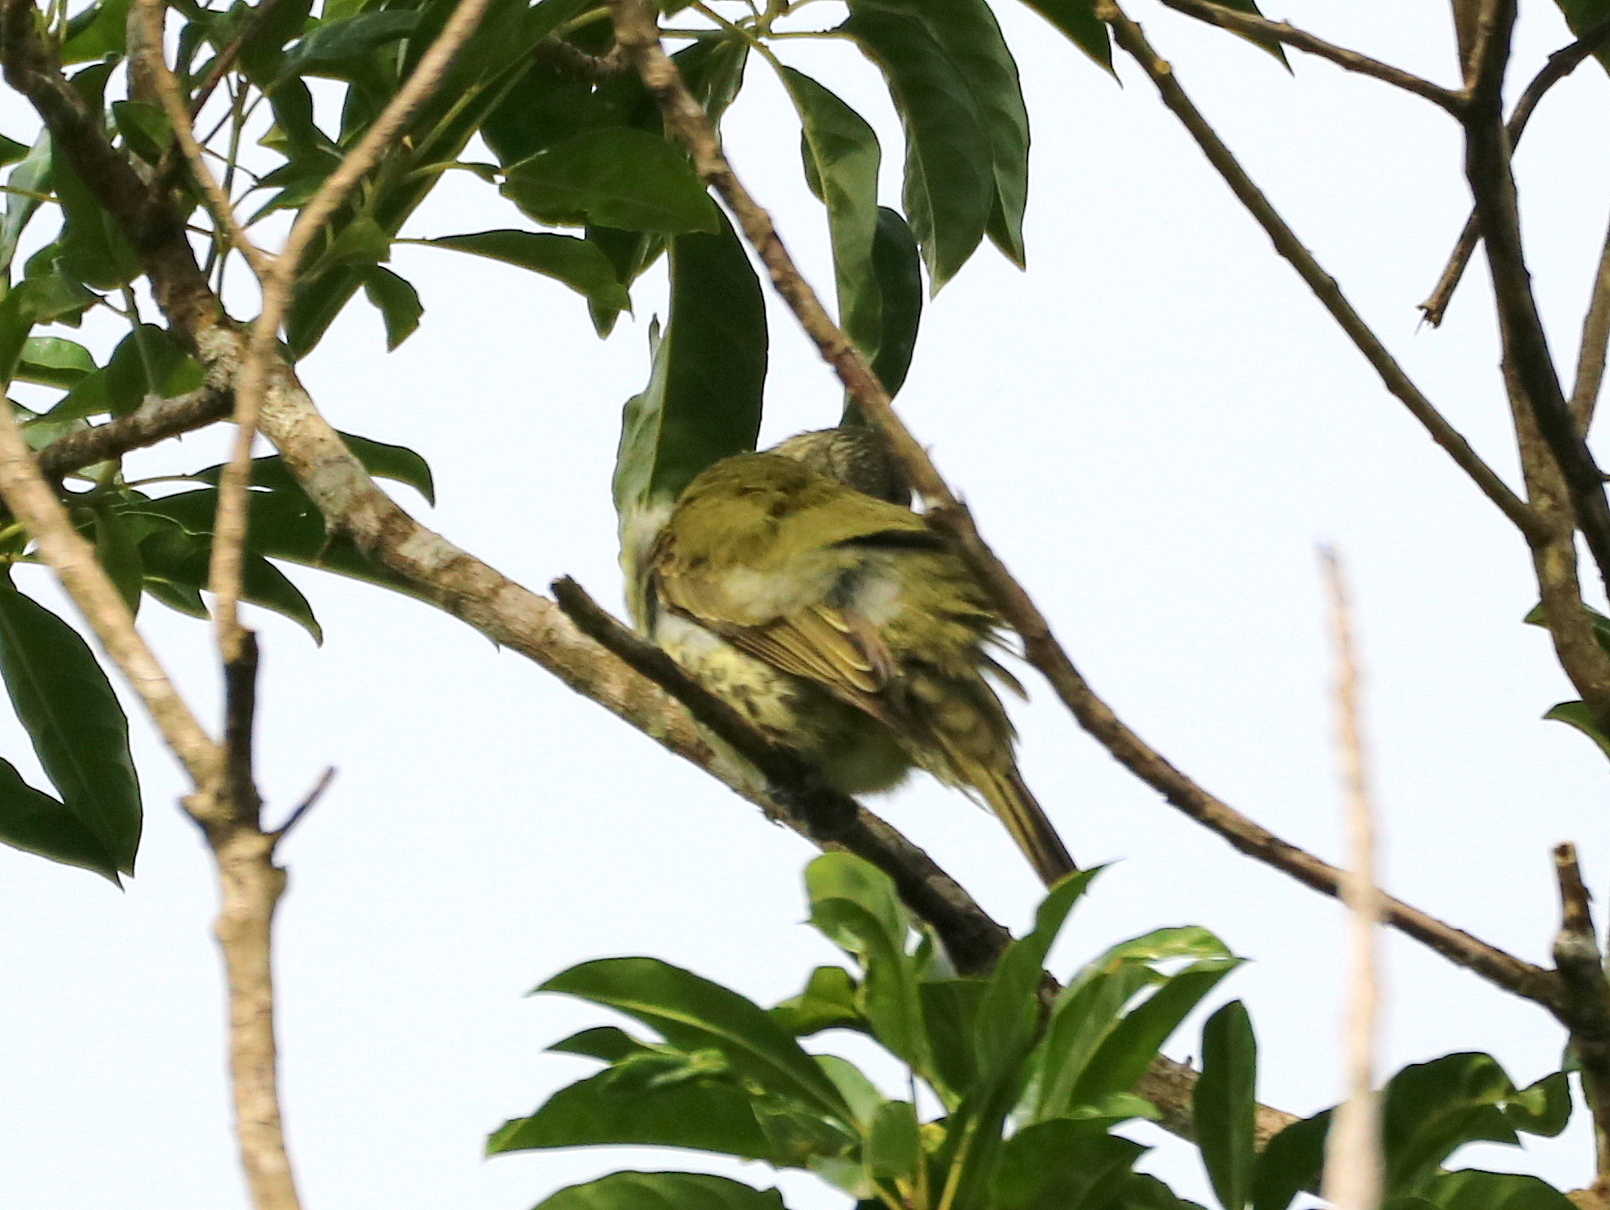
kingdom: Animalia
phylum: Chordata
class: Aves
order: Passeriformes
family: Cotingidae
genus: Oxyruncus
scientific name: Oxyruncus cristatus
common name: Sharpbill
